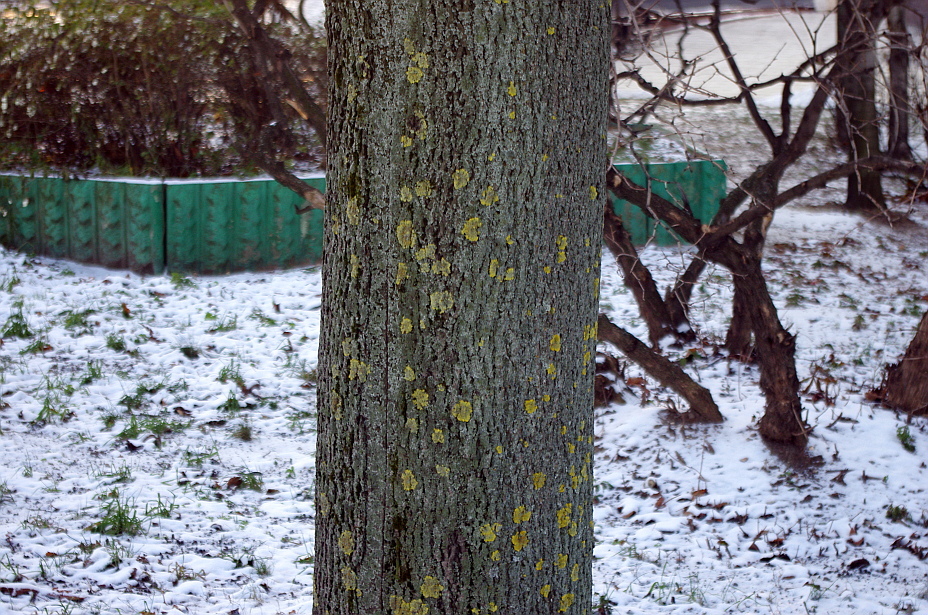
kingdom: Fungi
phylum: Ascomycota
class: Lecanoromycetes
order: Teloschistales
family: Teloschistaceae
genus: Xanthoria
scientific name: Xanthoria parietina
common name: Common orange lichen
